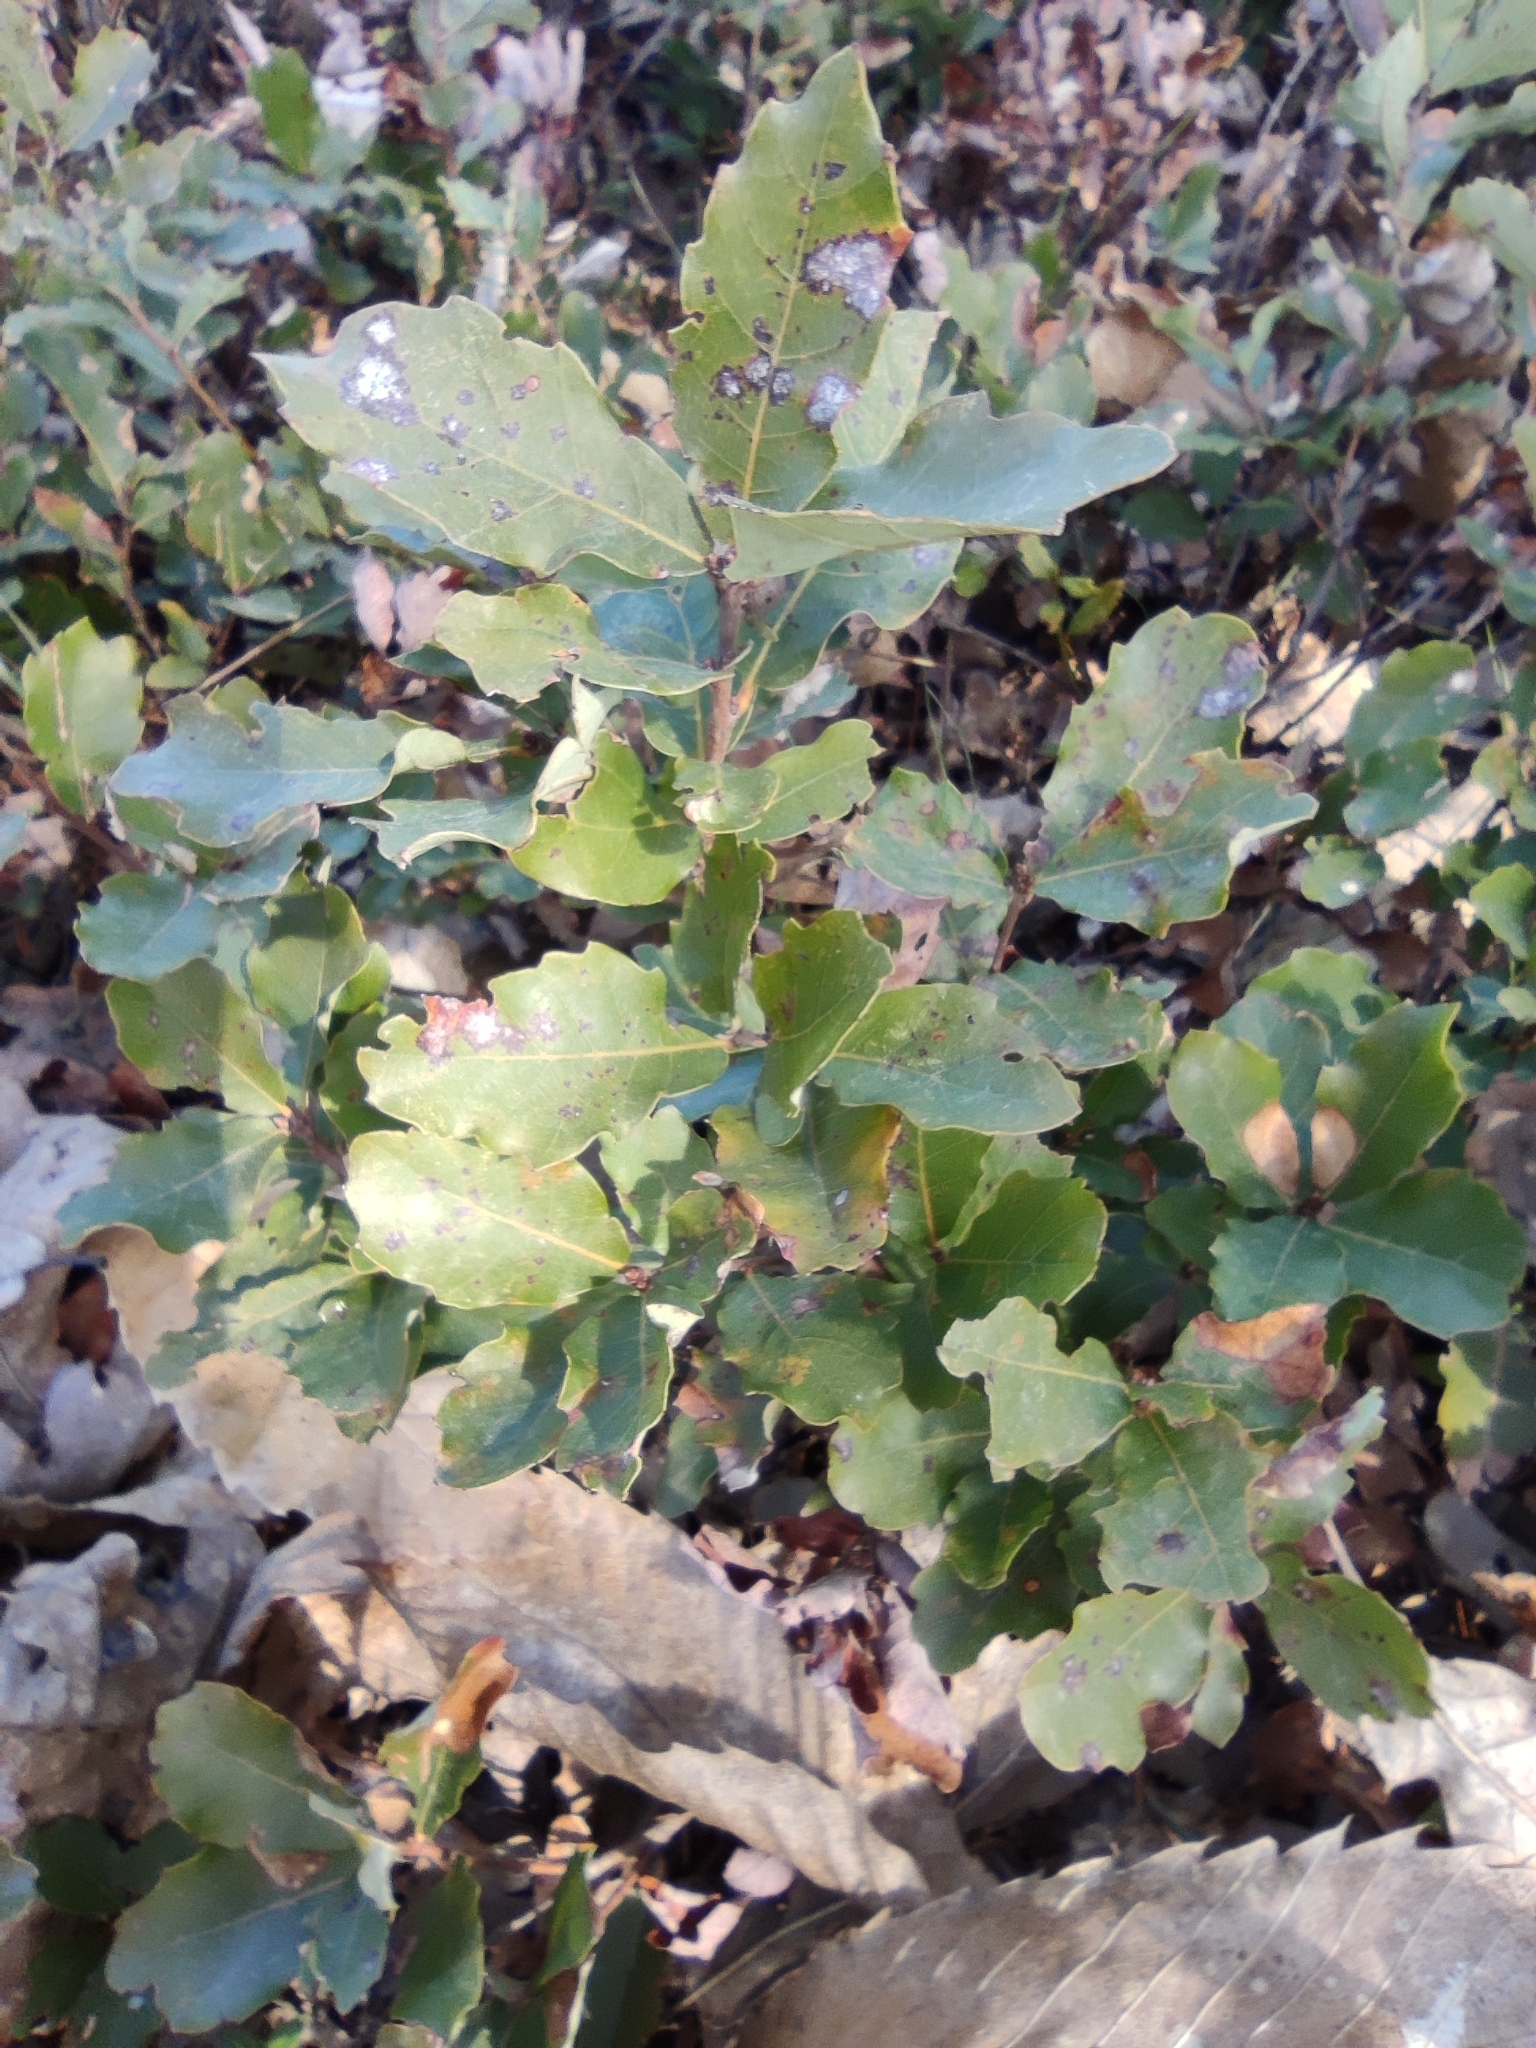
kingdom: Plantae
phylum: Tracheophyta
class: Magnoliopsida
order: Fagales
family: Fagaceae
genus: Quercus
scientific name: Quercus lusitanica
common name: Scrub gall oak
